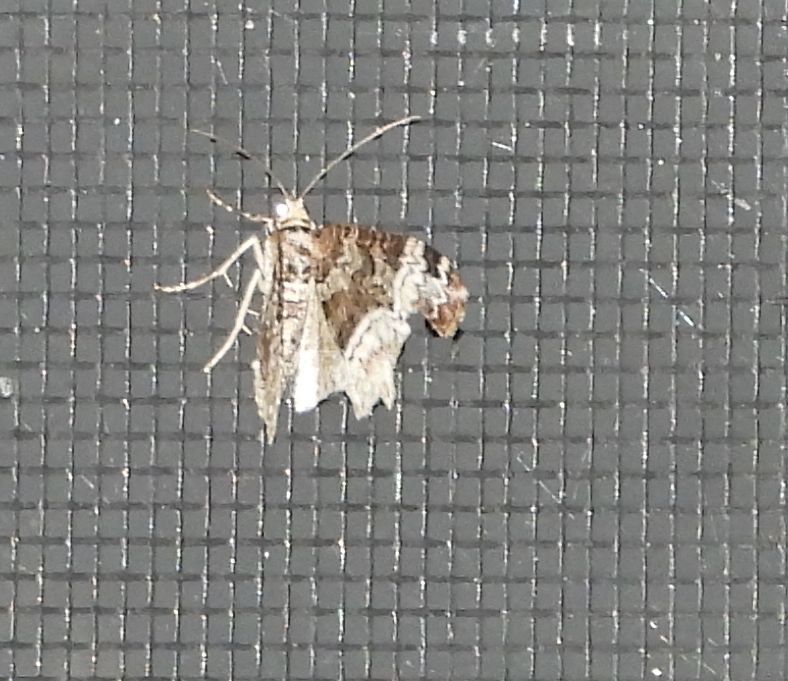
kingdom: Animalia
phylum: Arthropoda
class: Insecta
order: Lepidoptera
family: Geometridae
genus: Epirrhoe
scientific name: Epirrhoe alternata
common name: Common carpet
